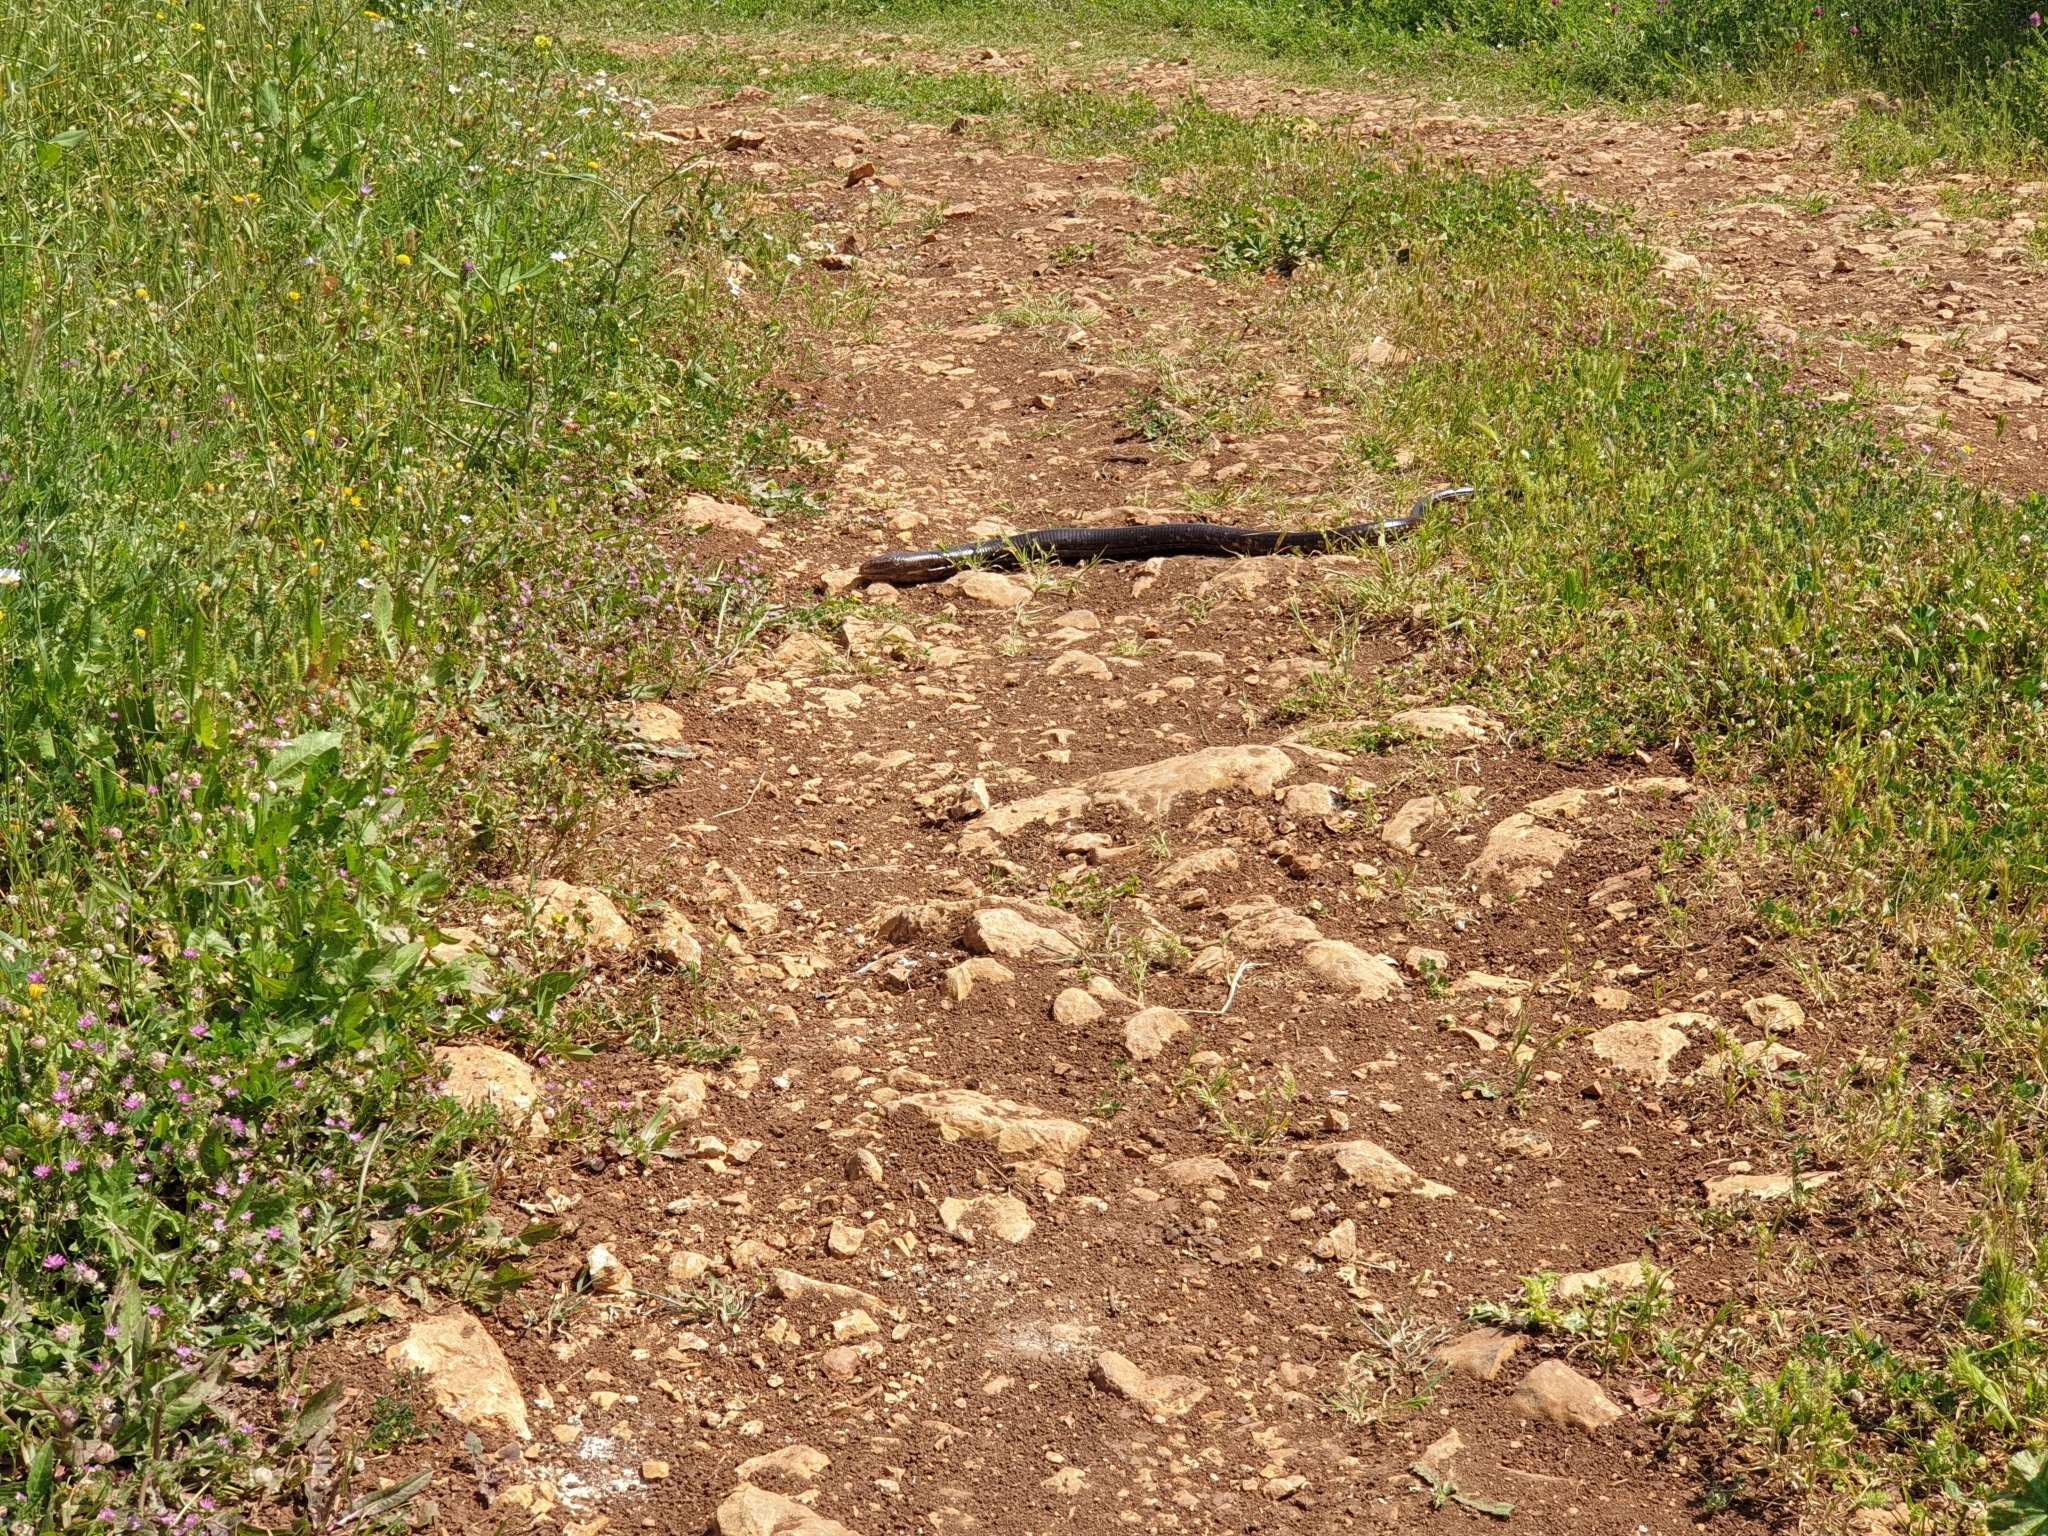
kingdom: Animalia
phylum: Chordata
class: Squamata
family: Anguidae
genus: Pseudopus
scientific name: Pseudopus apodus
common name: European glass lizard
